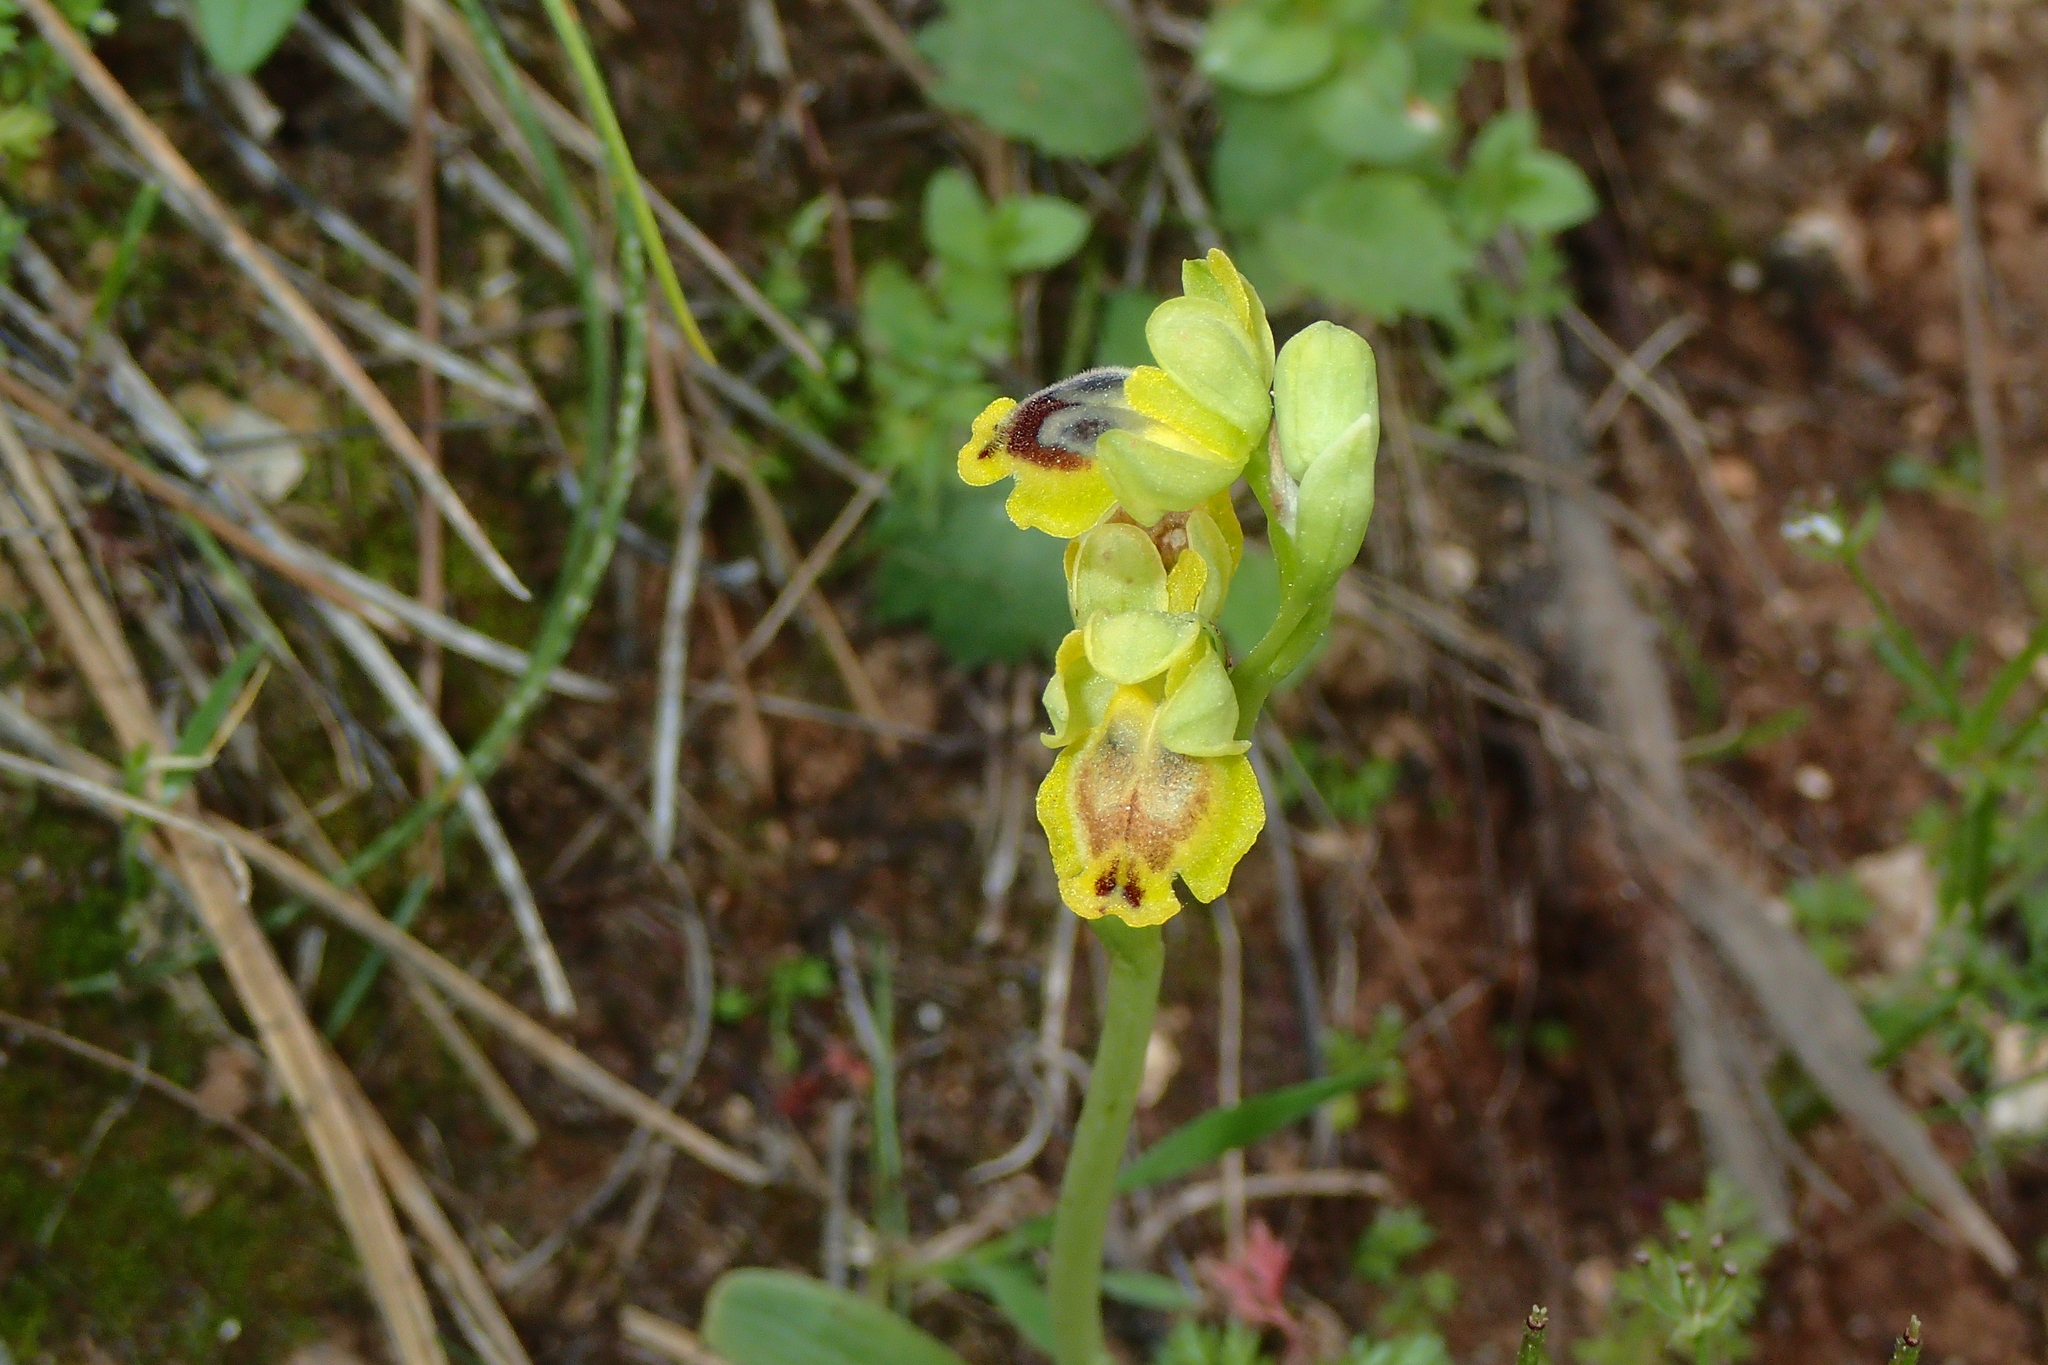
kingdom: Plantae
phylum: Tracheophyta
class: Liliopsida
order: Asparagales
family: Orchidaceae
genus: Ophrys
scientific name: Ophrys lutea
